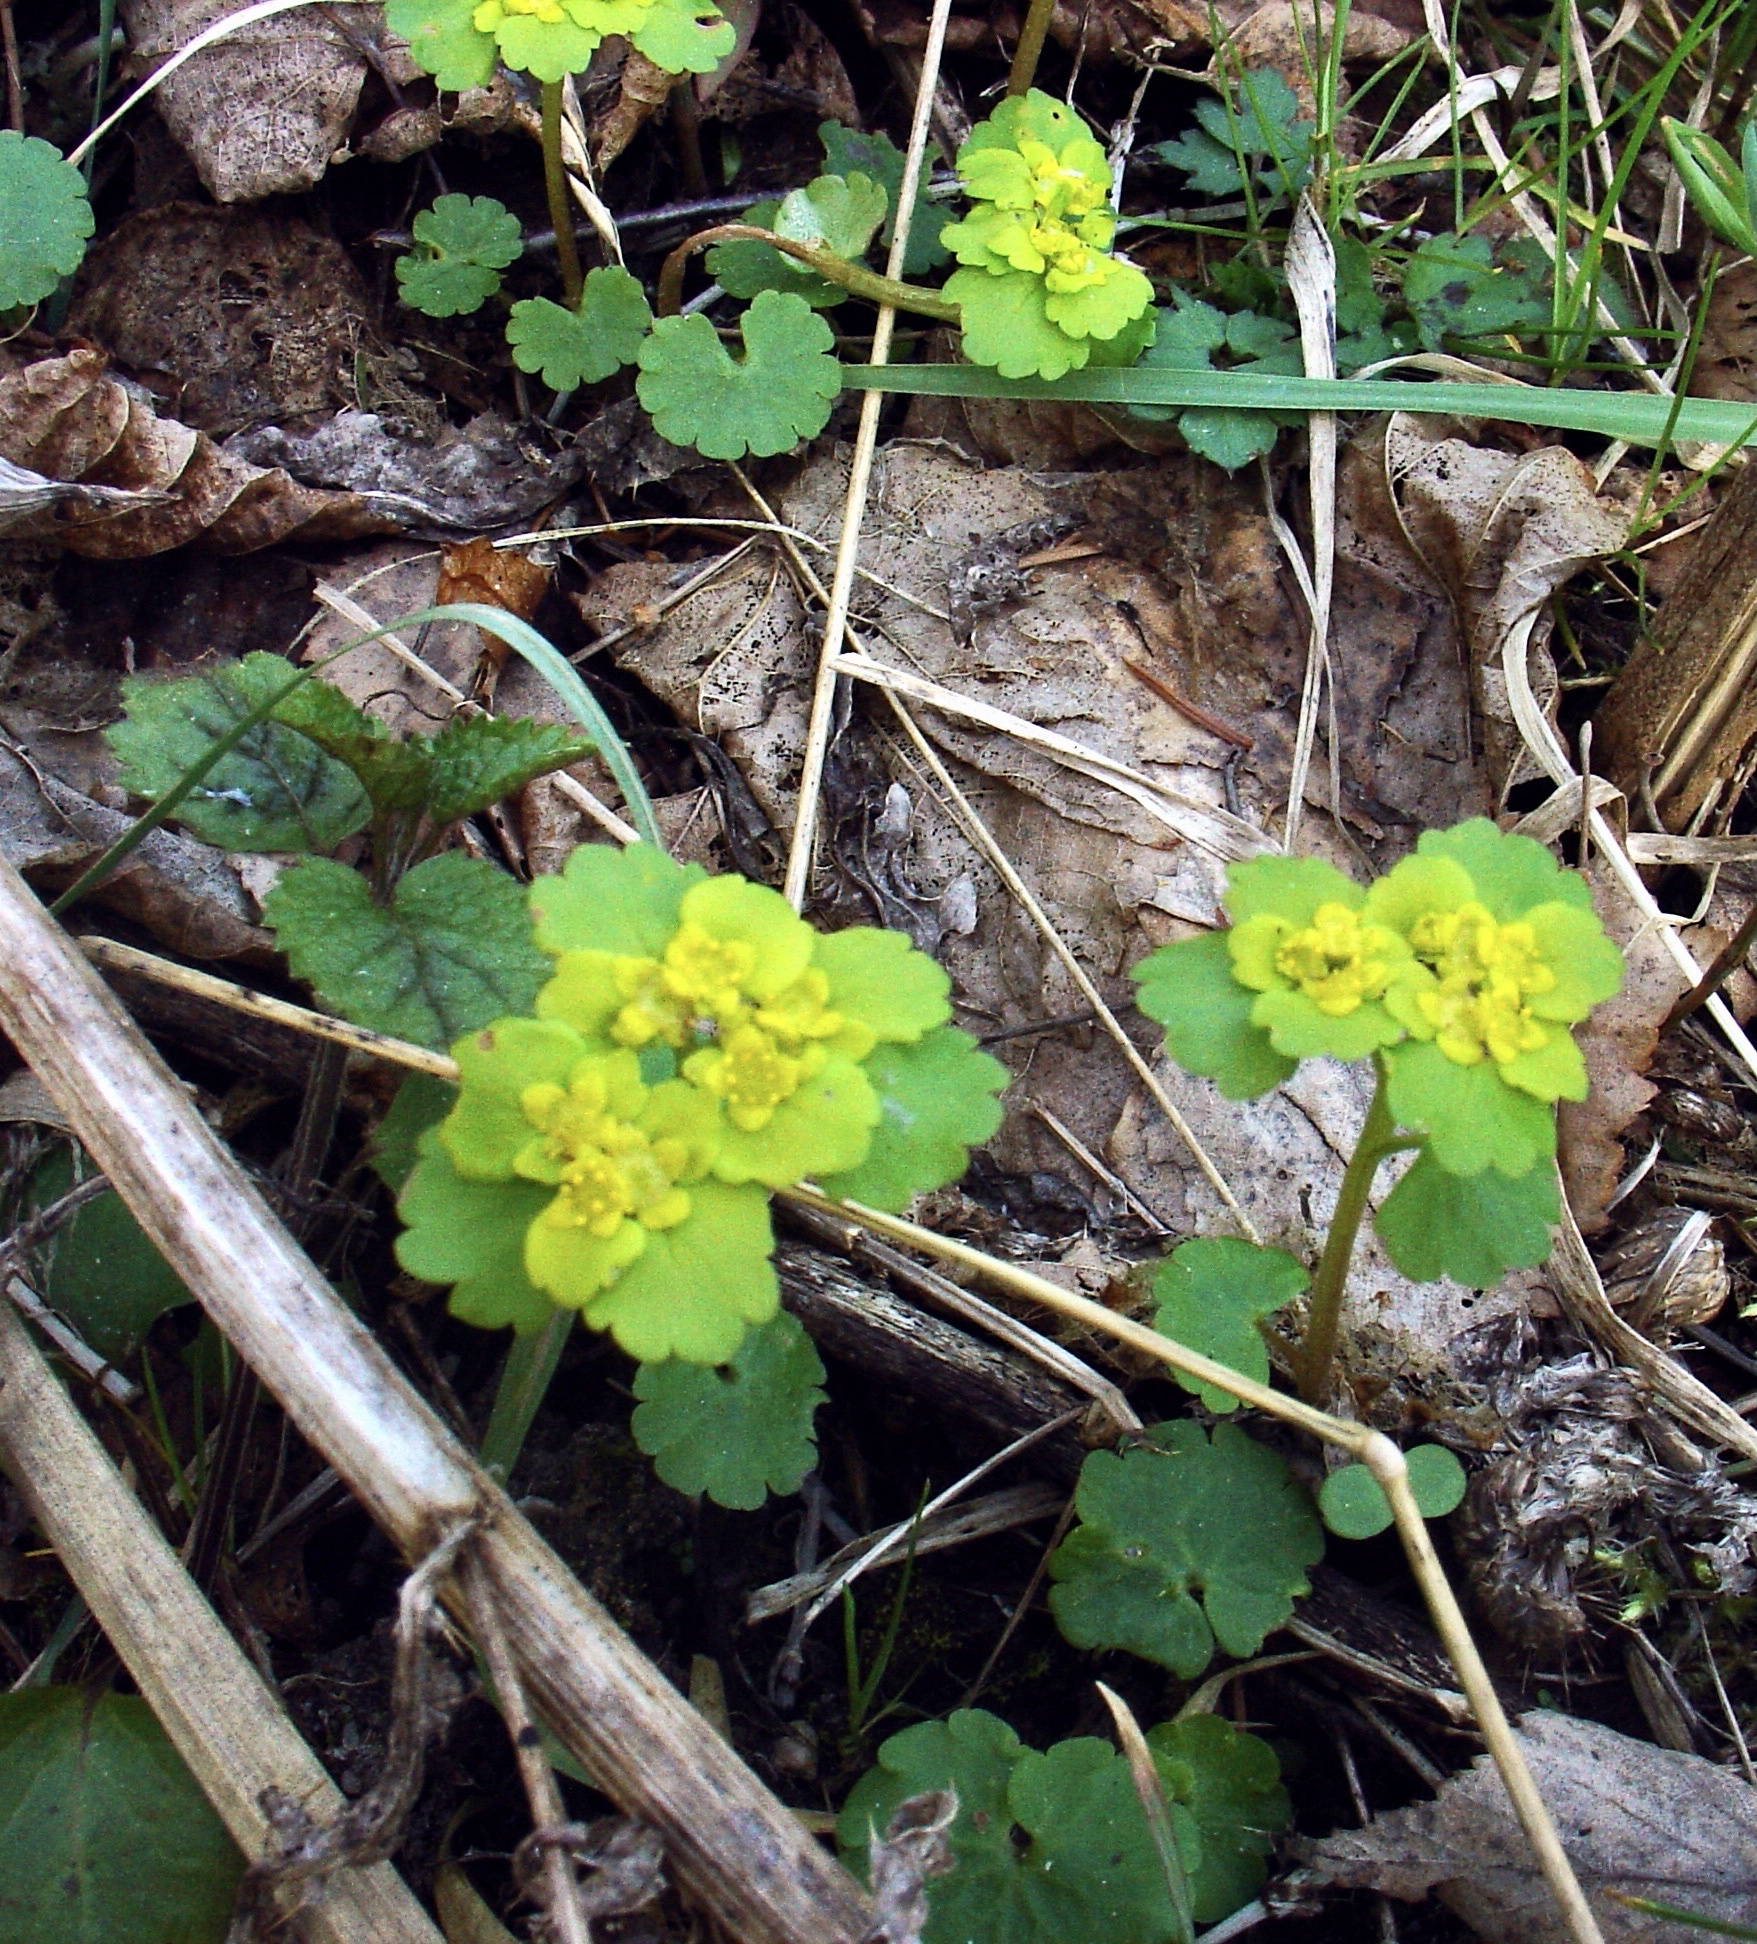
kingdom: Plantae
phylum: Tracheophyta
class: Magnoliopsida
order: Saxifragales
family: Saxifragaceae
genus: Chrysosplenium
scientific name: Chrysosplenium alternifolium
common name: Alternate-leaved golden-saxifrage
